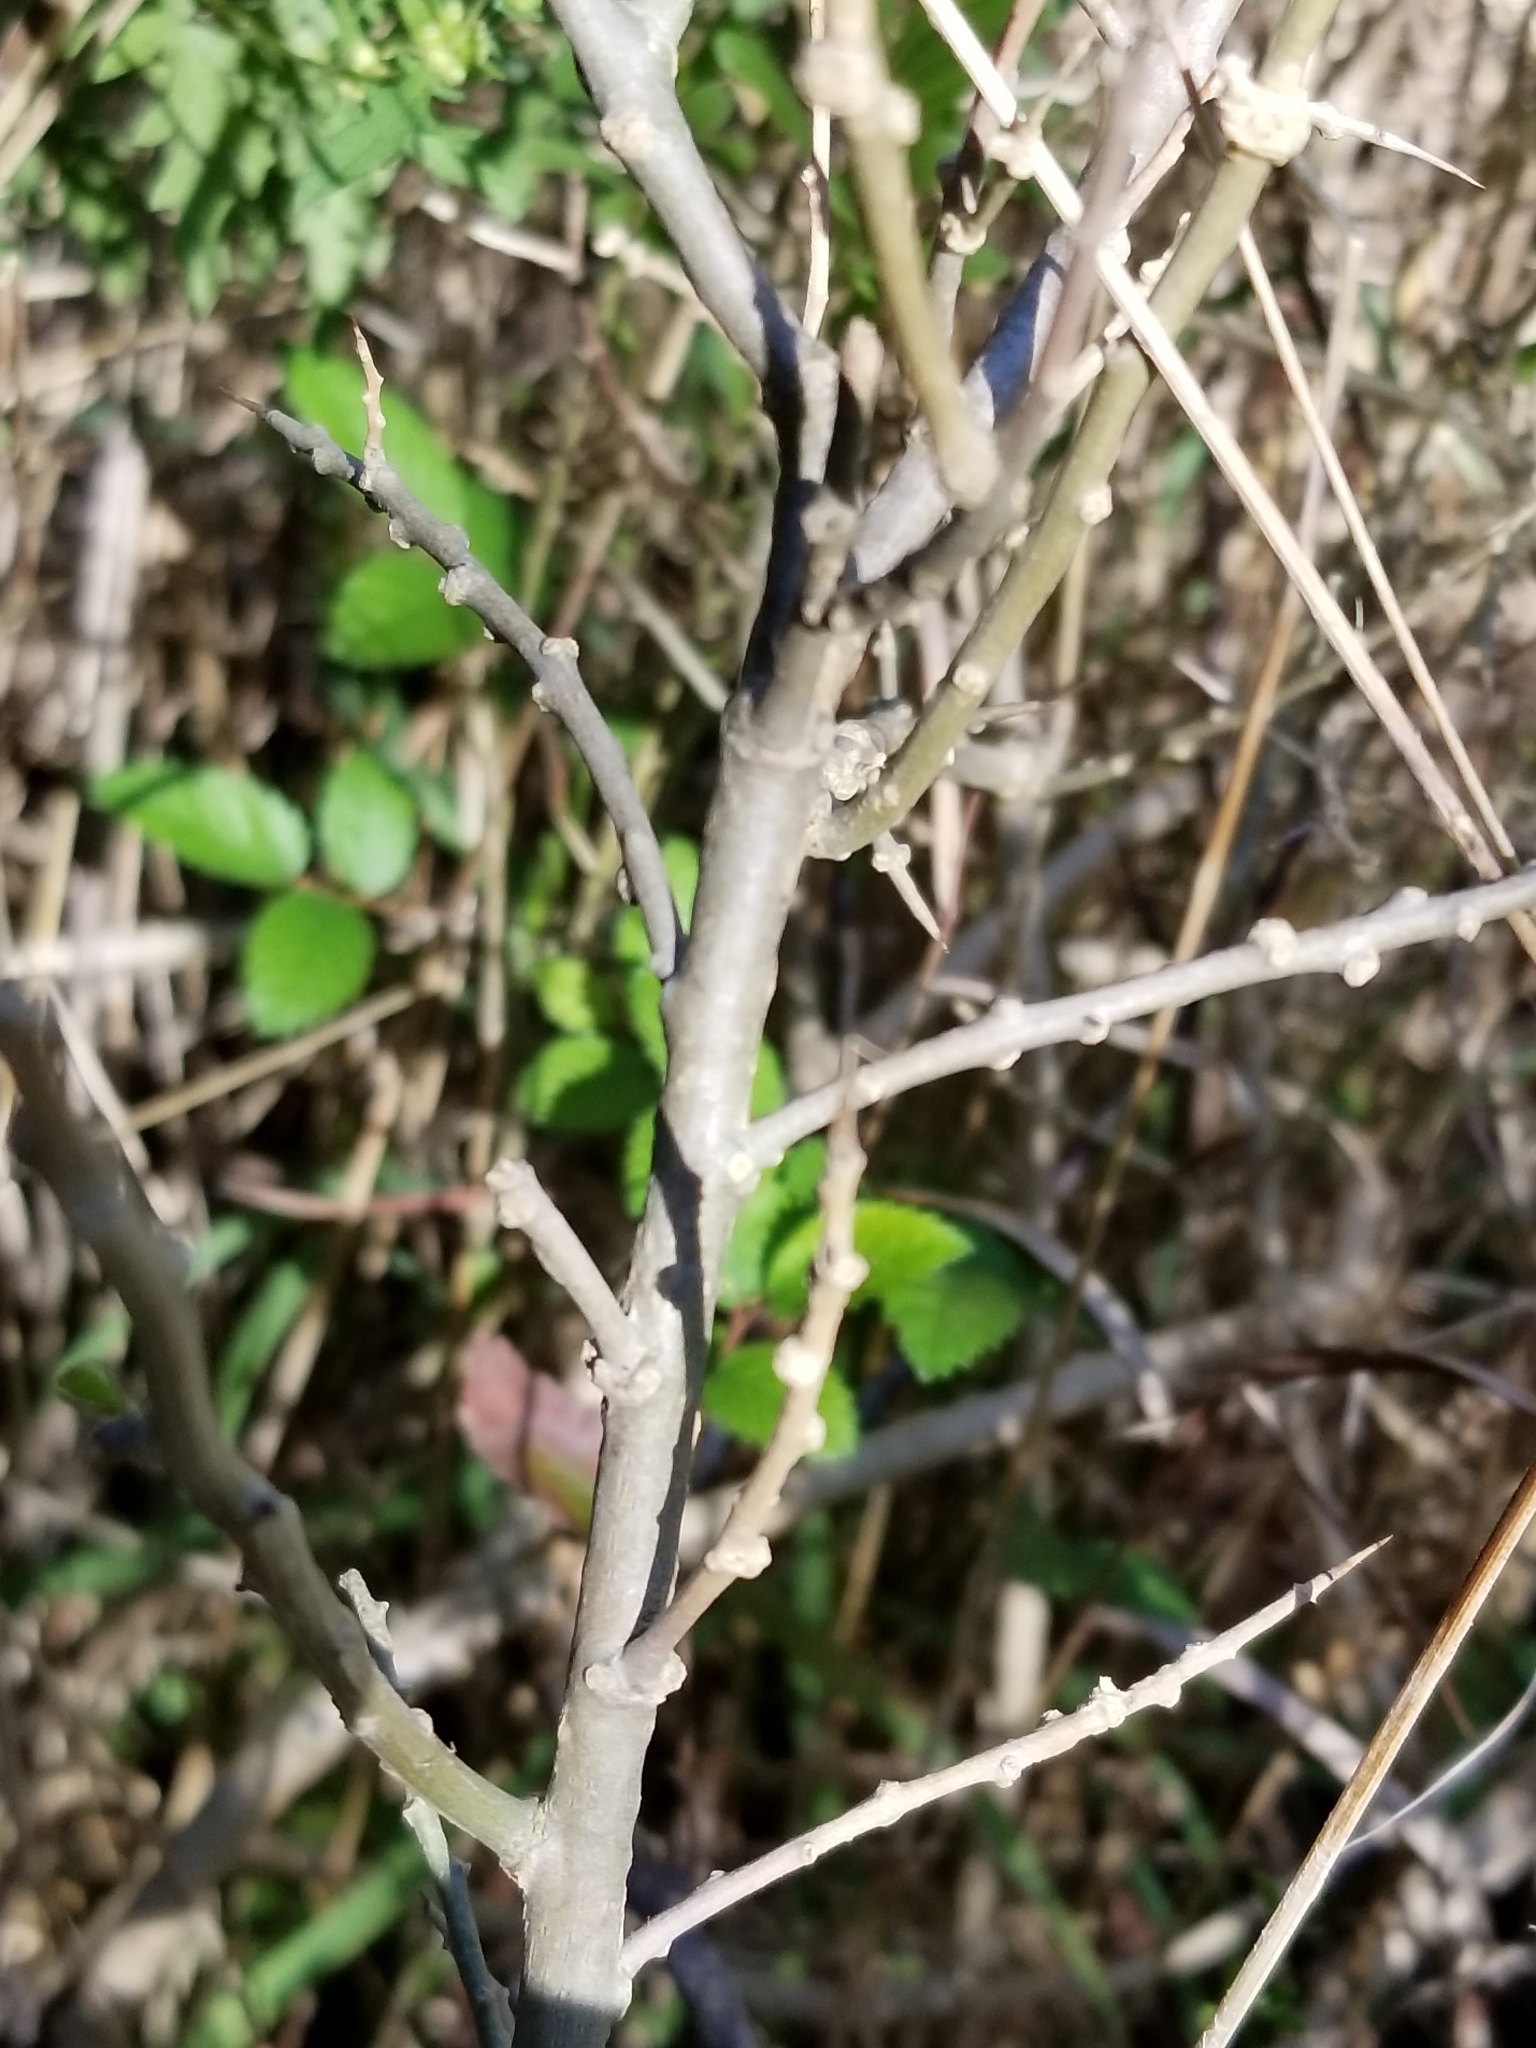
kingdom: Plantae
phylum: Tracheophyta
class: Magnoliopsida
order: Solanales
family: Solanaceae
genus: Lycium
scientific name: Lycium carolinianum
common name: Christmasberry
